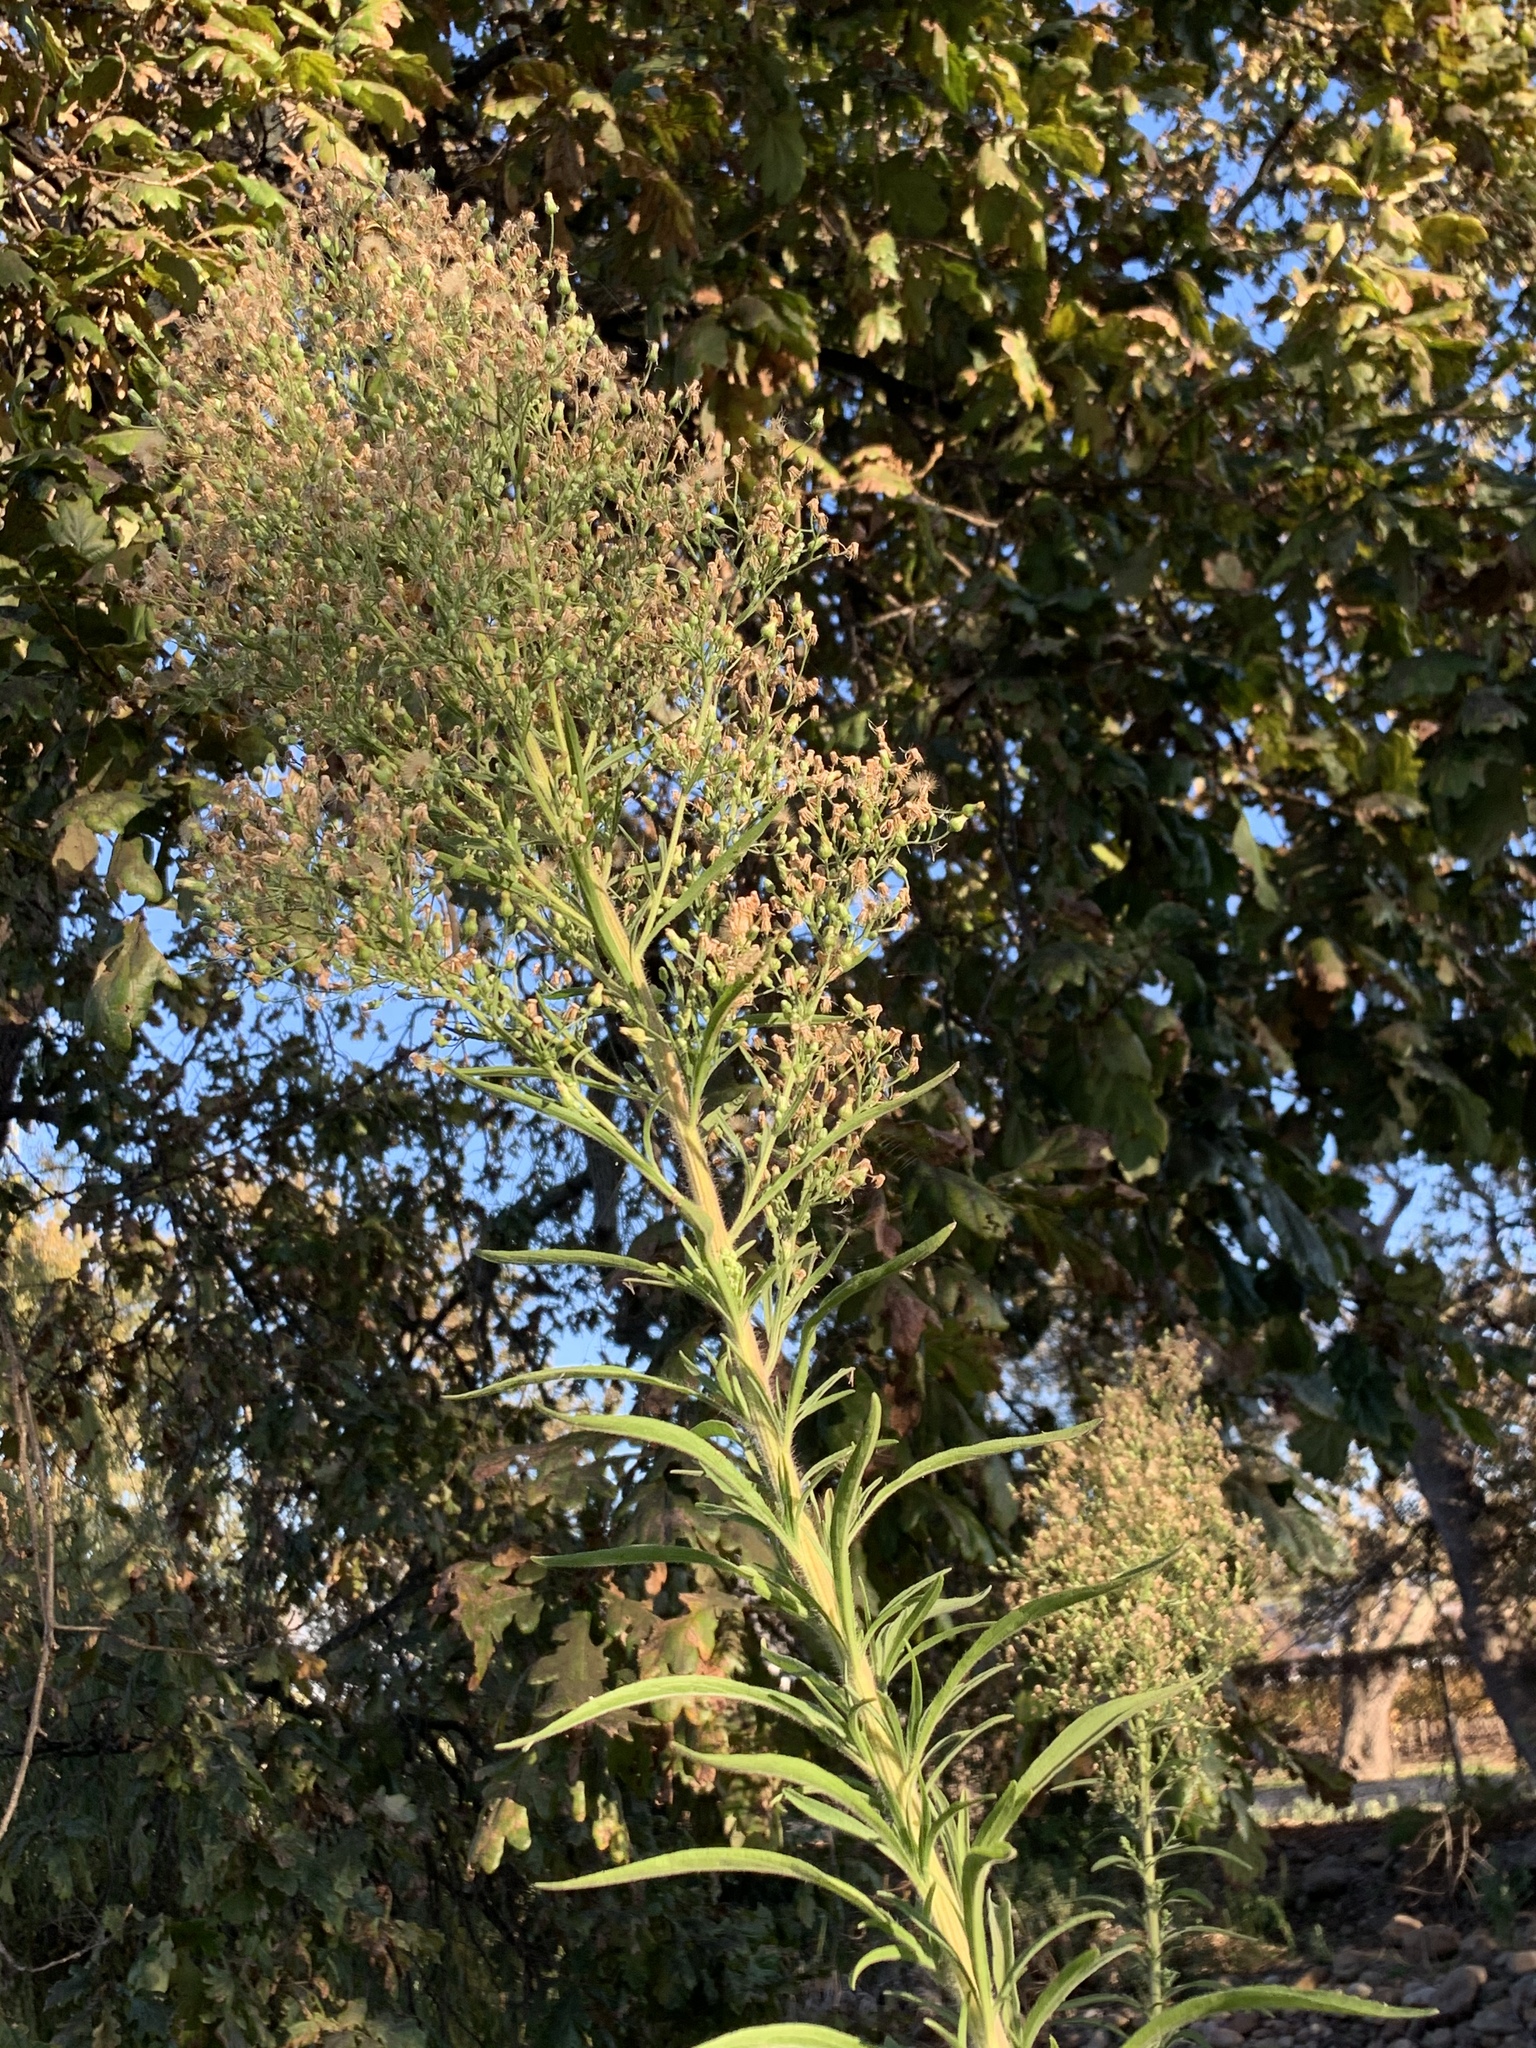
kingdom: Plantae
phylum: Tracheophyta
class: Magnoliopsida
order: Asterales
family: Asteraceae
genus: Erigeron
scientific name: Erigeron sumatrensis
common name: Daisy
